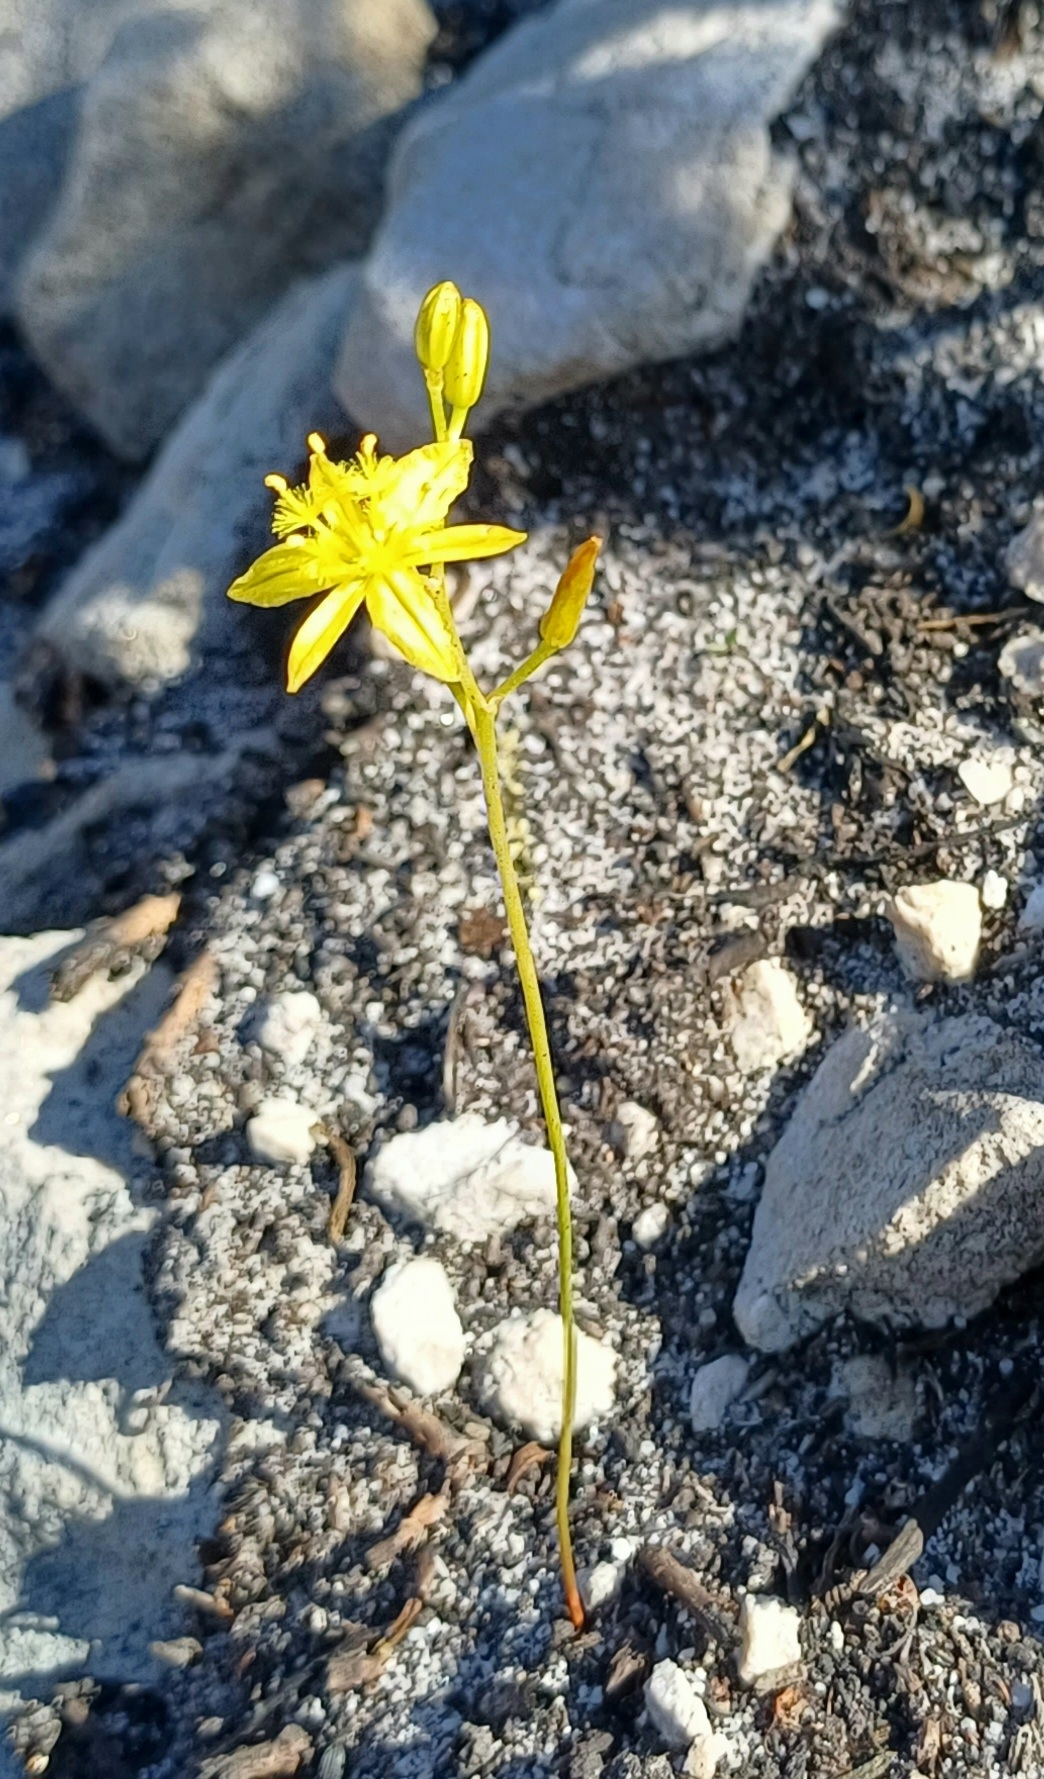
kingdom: Plantae
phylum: Tracheophyta
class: Liliopsida
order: Asparagales
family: Asphodelaceae
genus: Bulbine
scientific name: Bulbine favosa
